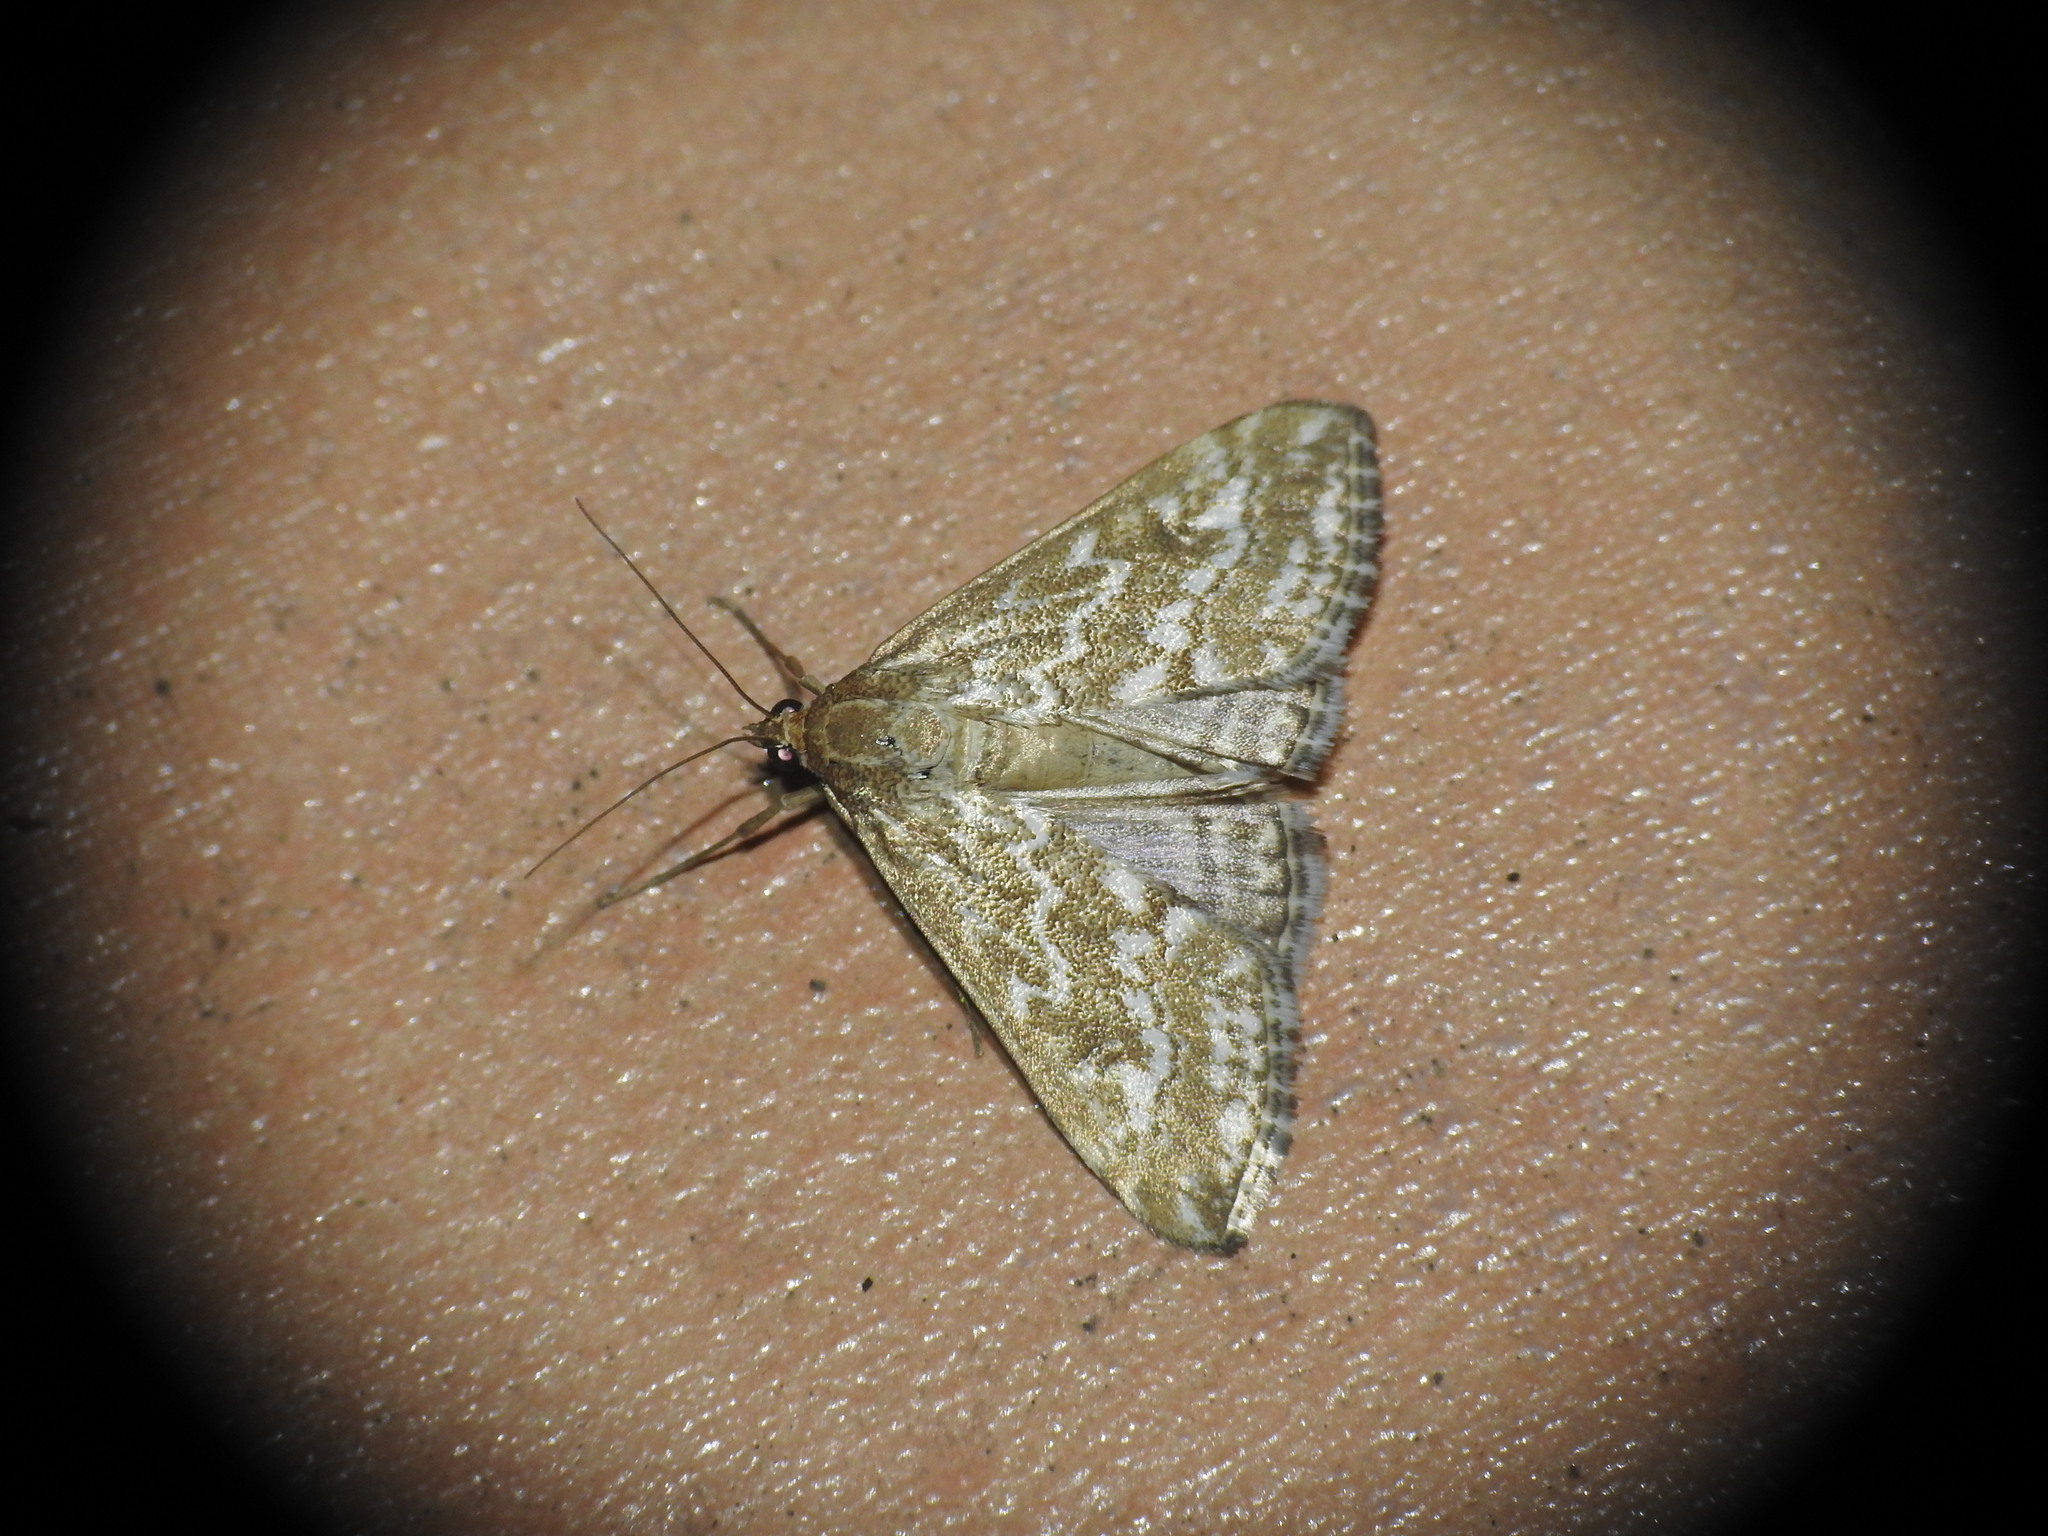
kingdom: Animalia
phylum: Arthropoda
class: Insecta
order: Lepidoptera
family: Crambidae
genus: Evergestis
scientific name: Evergestis frumentalis
